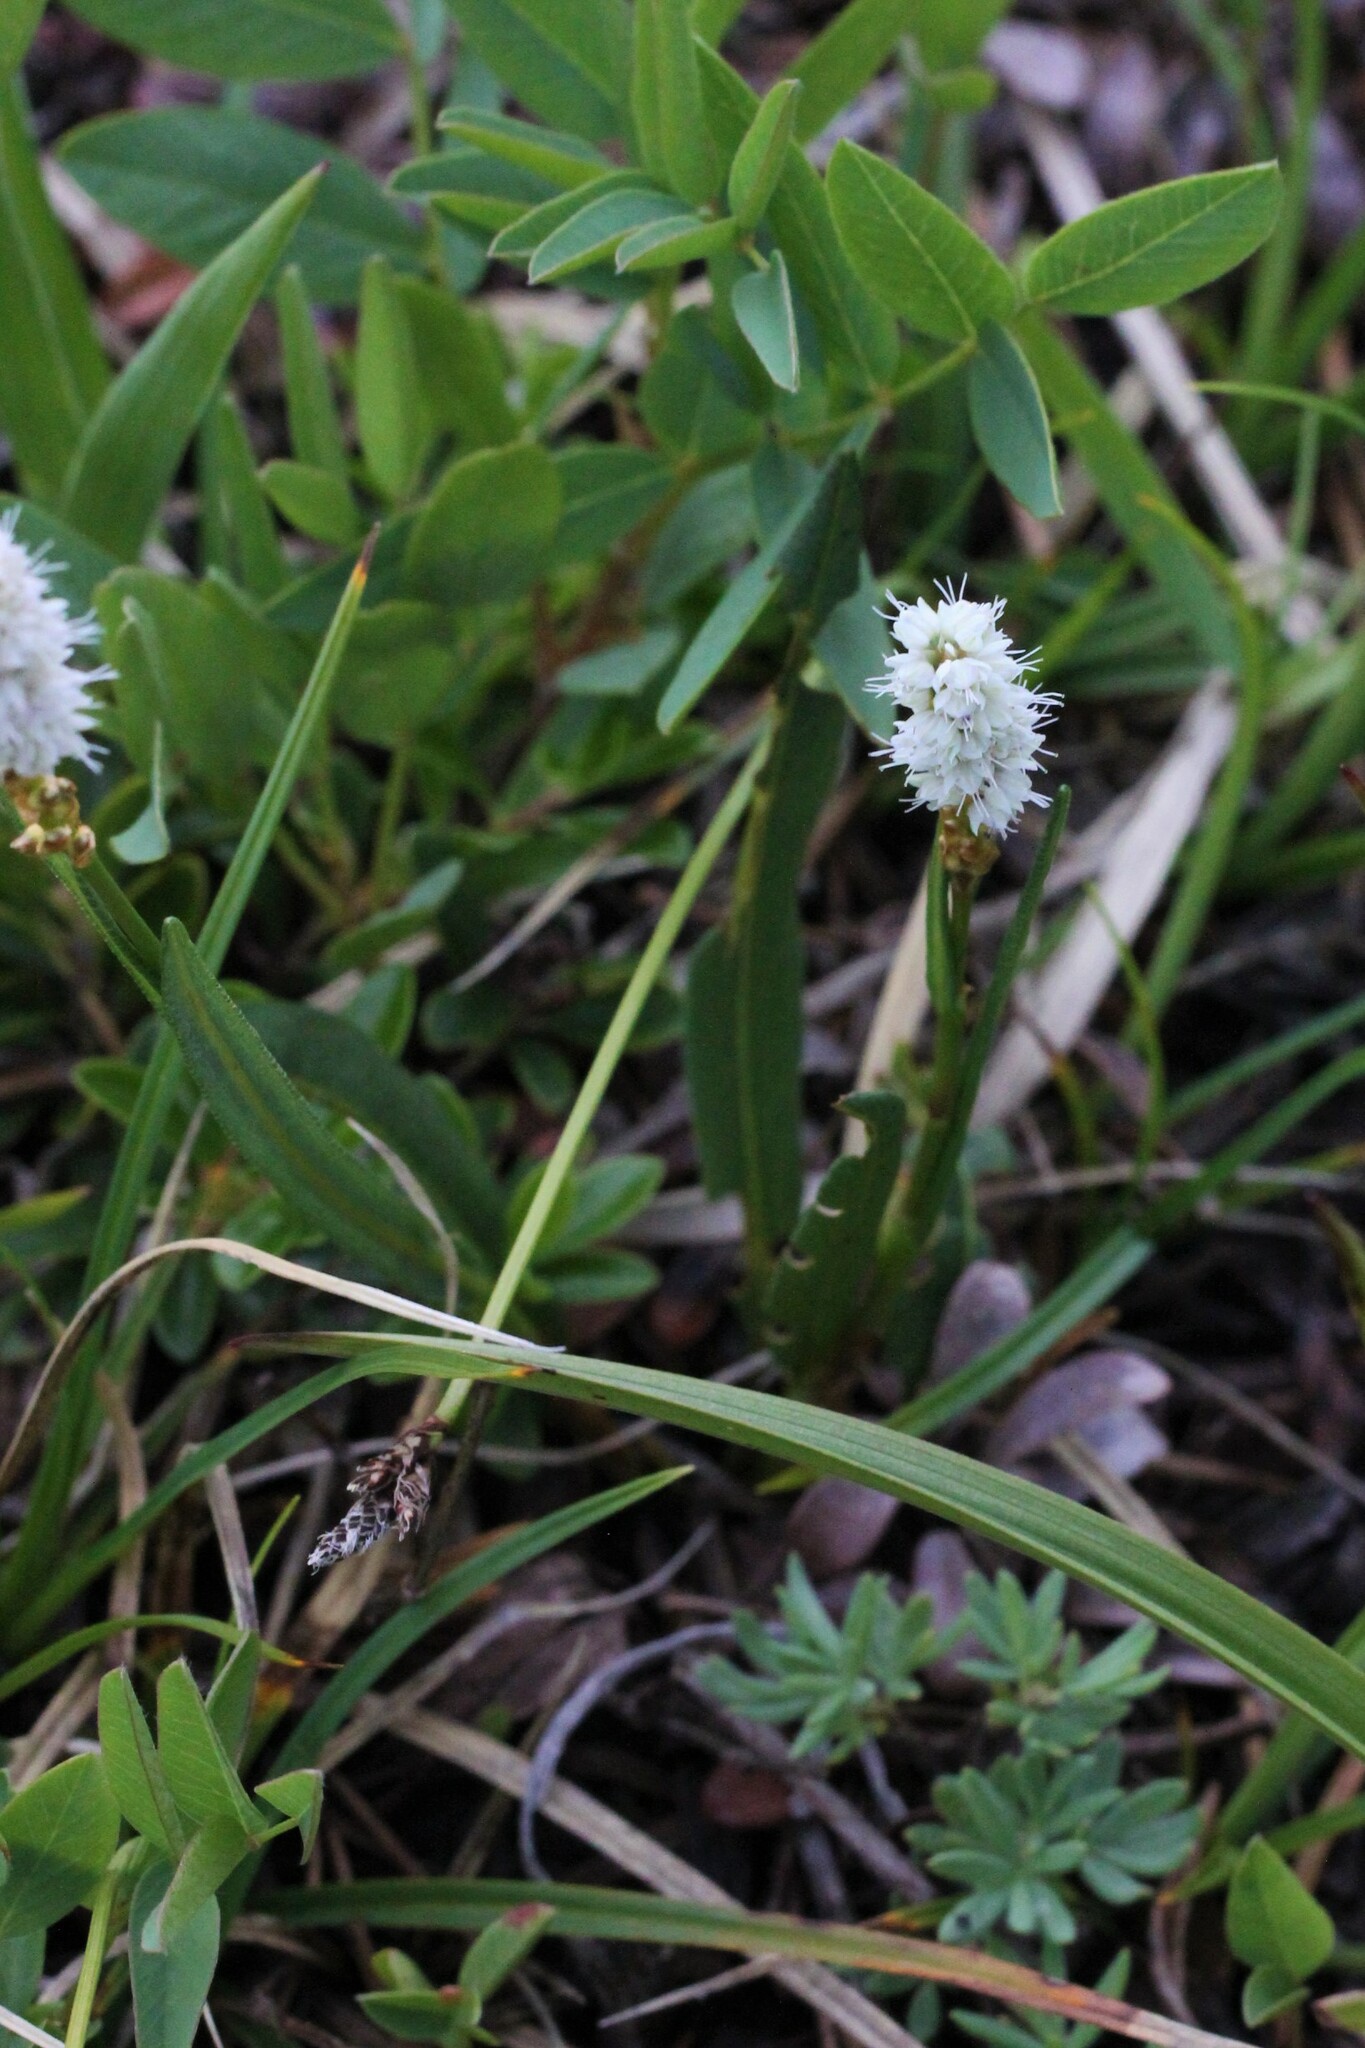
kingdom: Plantae
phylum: Tracheophyta
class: Magnoliopsida
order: Caryophyllales
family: Polygonaceae
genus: Bistorta
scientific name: Bistorta vivipara
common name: Alpine bistort
